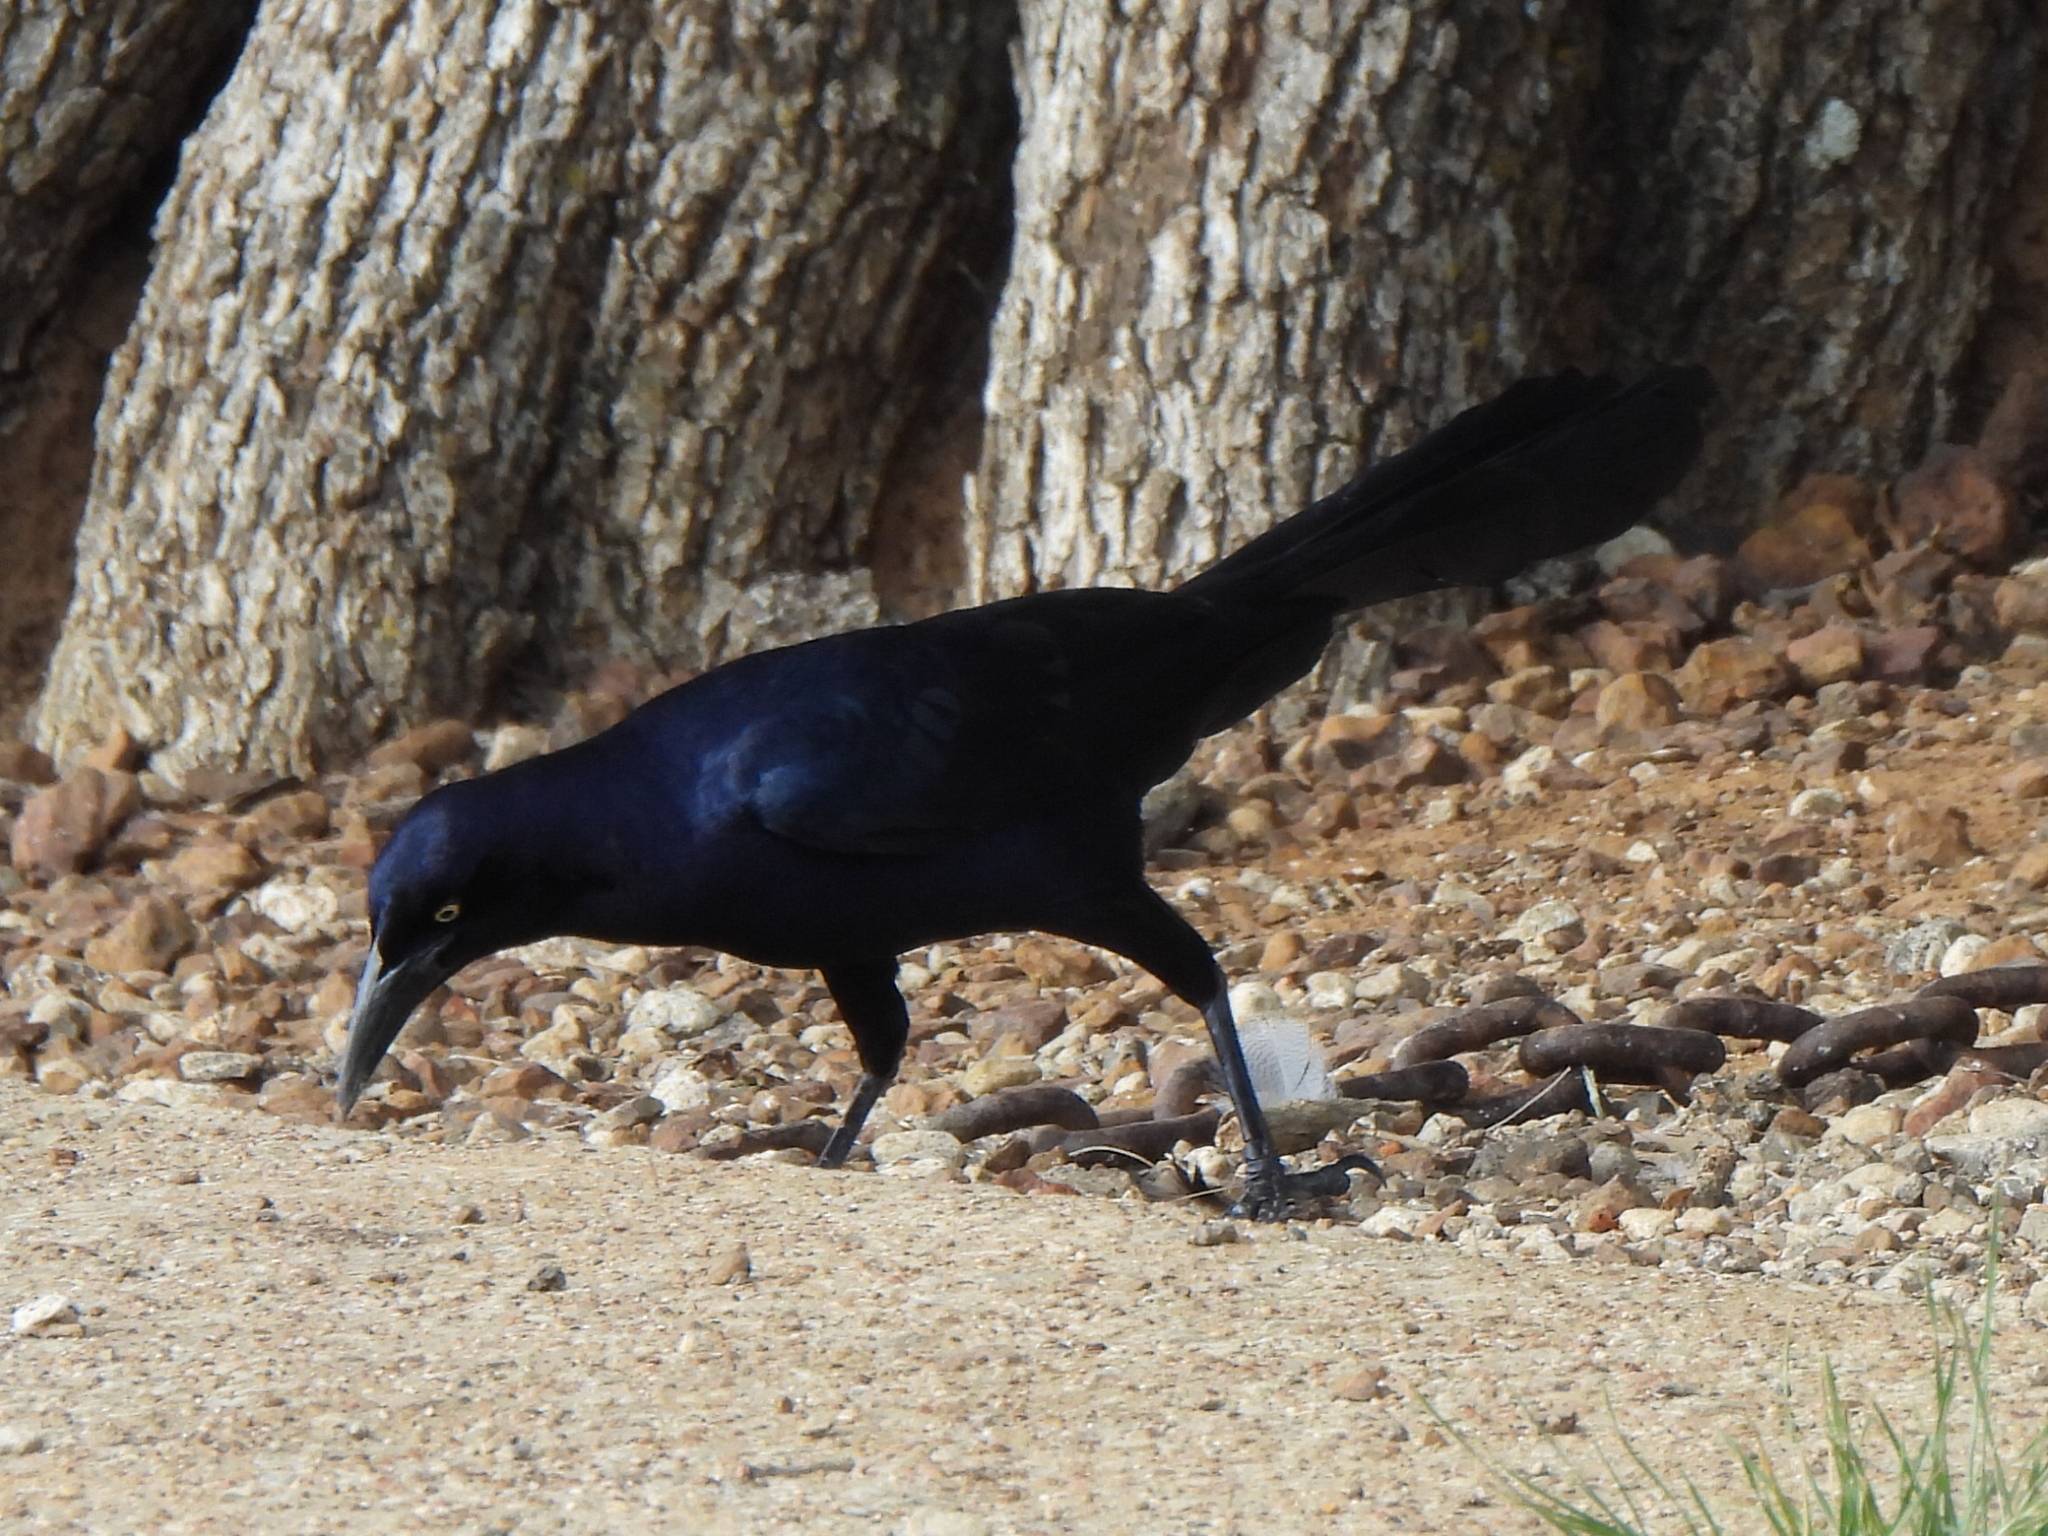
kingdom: Animalia
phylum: Chordata
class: Aves
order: Passeriformes
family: Icteridae
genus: Quiscalus
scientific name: Quiscalus mexicanus
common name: Great-tailed grackle
